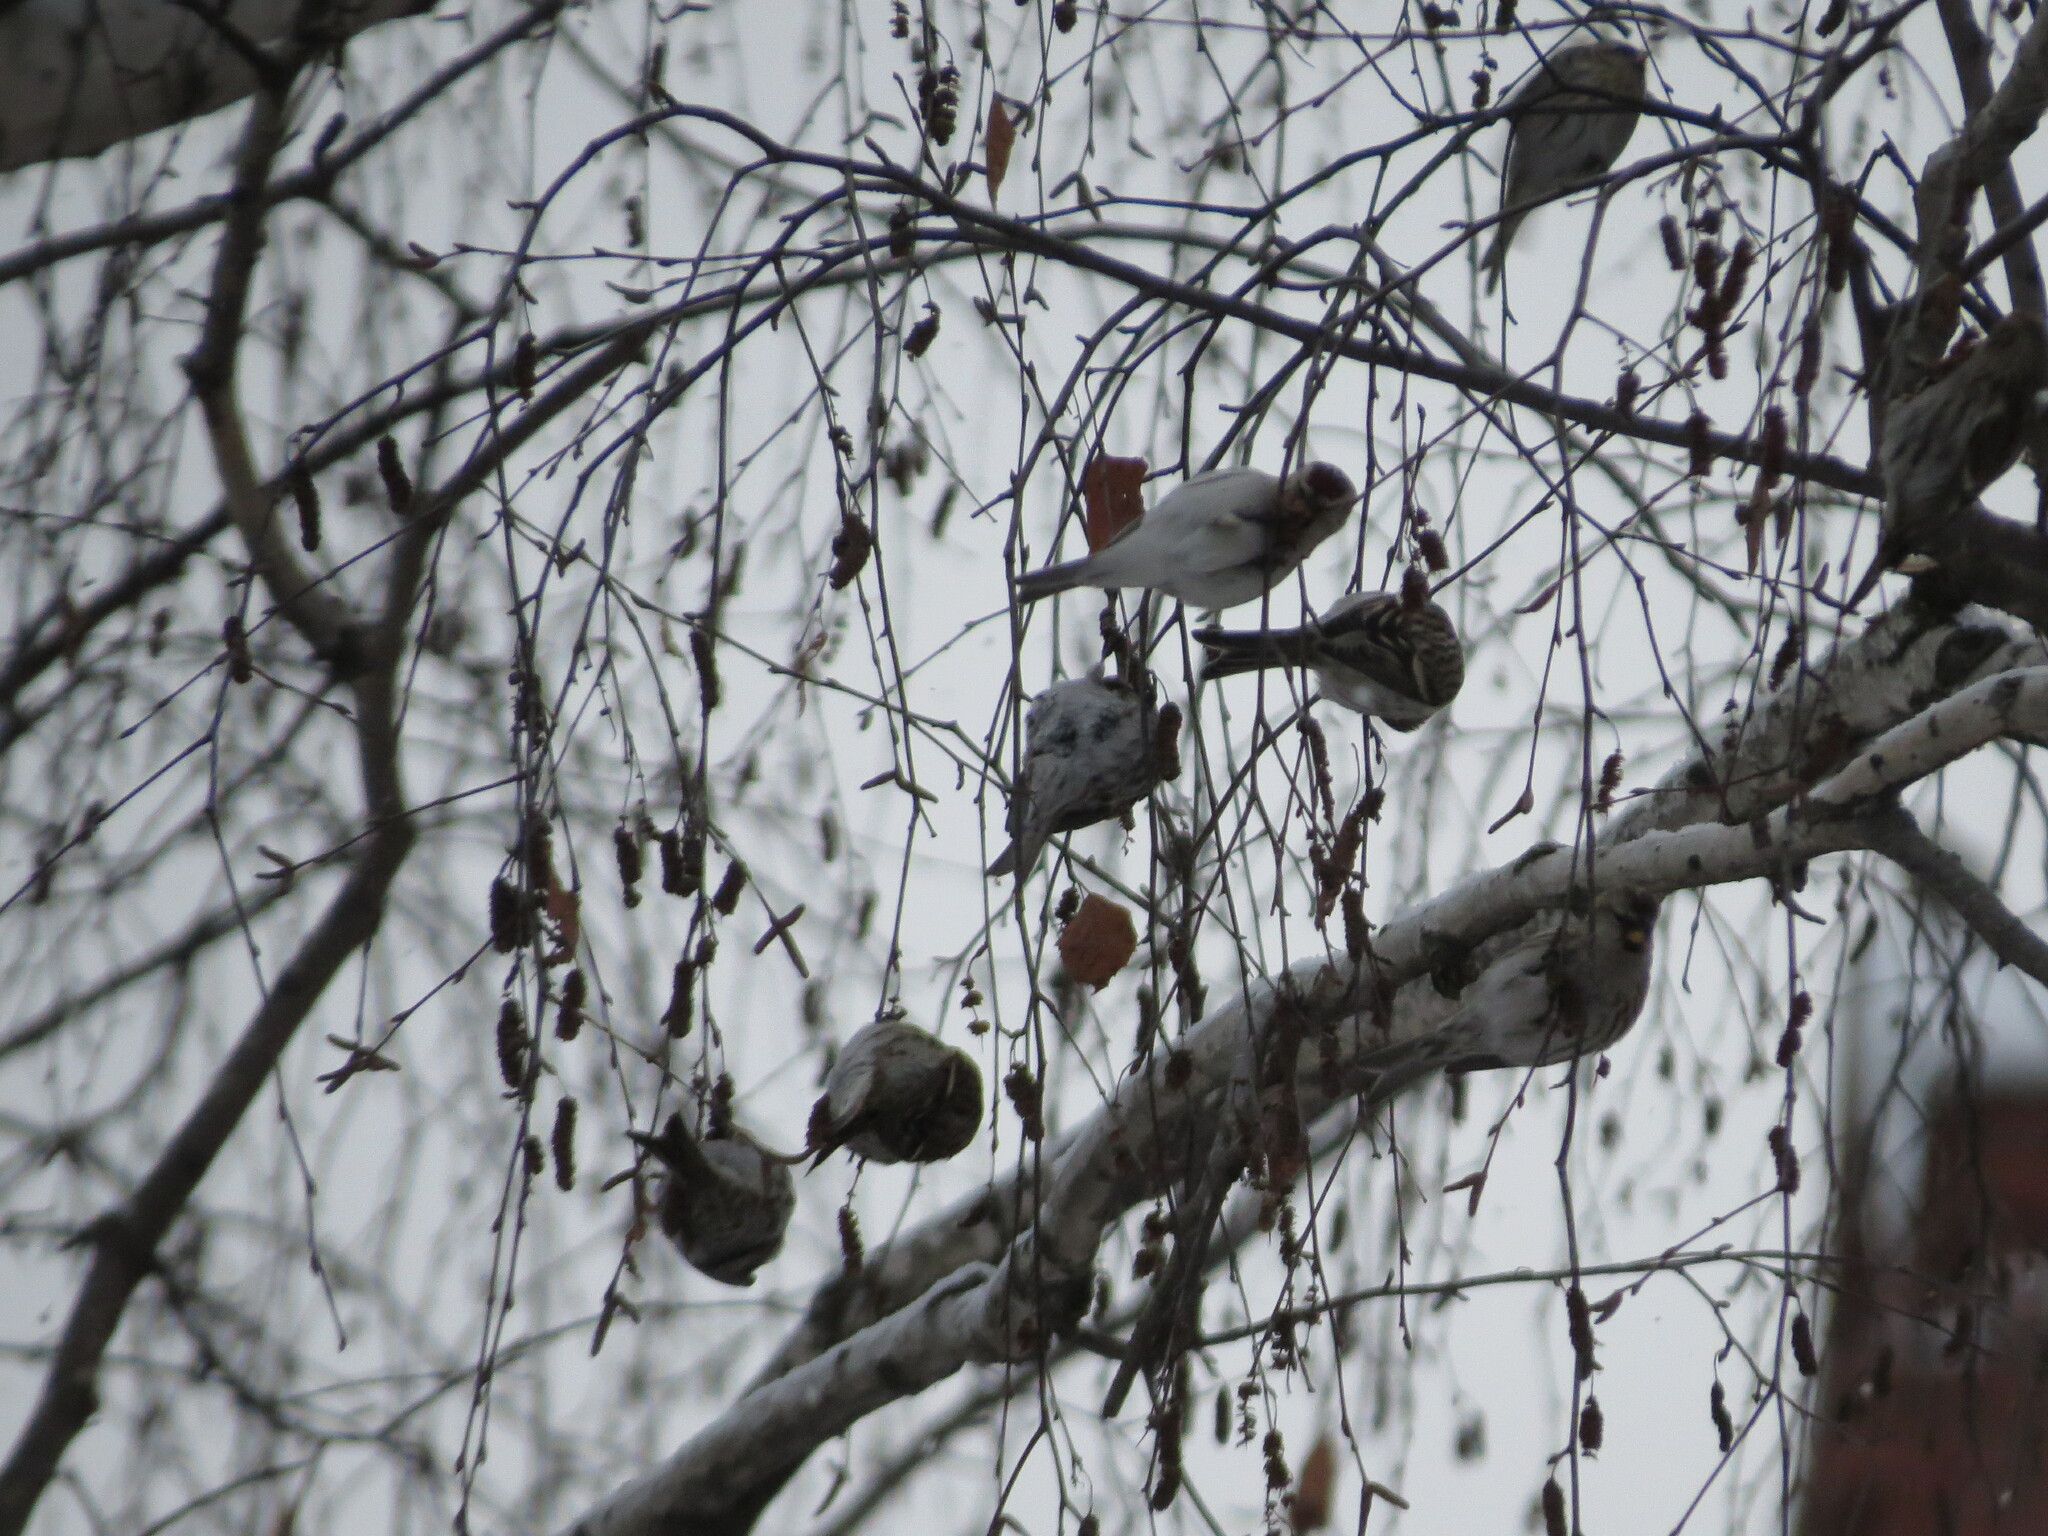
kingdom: Animalia
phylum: Chordata
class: Aves
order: Passeriformes
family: Fringillidae
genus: Acanthis
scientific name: Acanthis flammea
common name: Common redpoll
